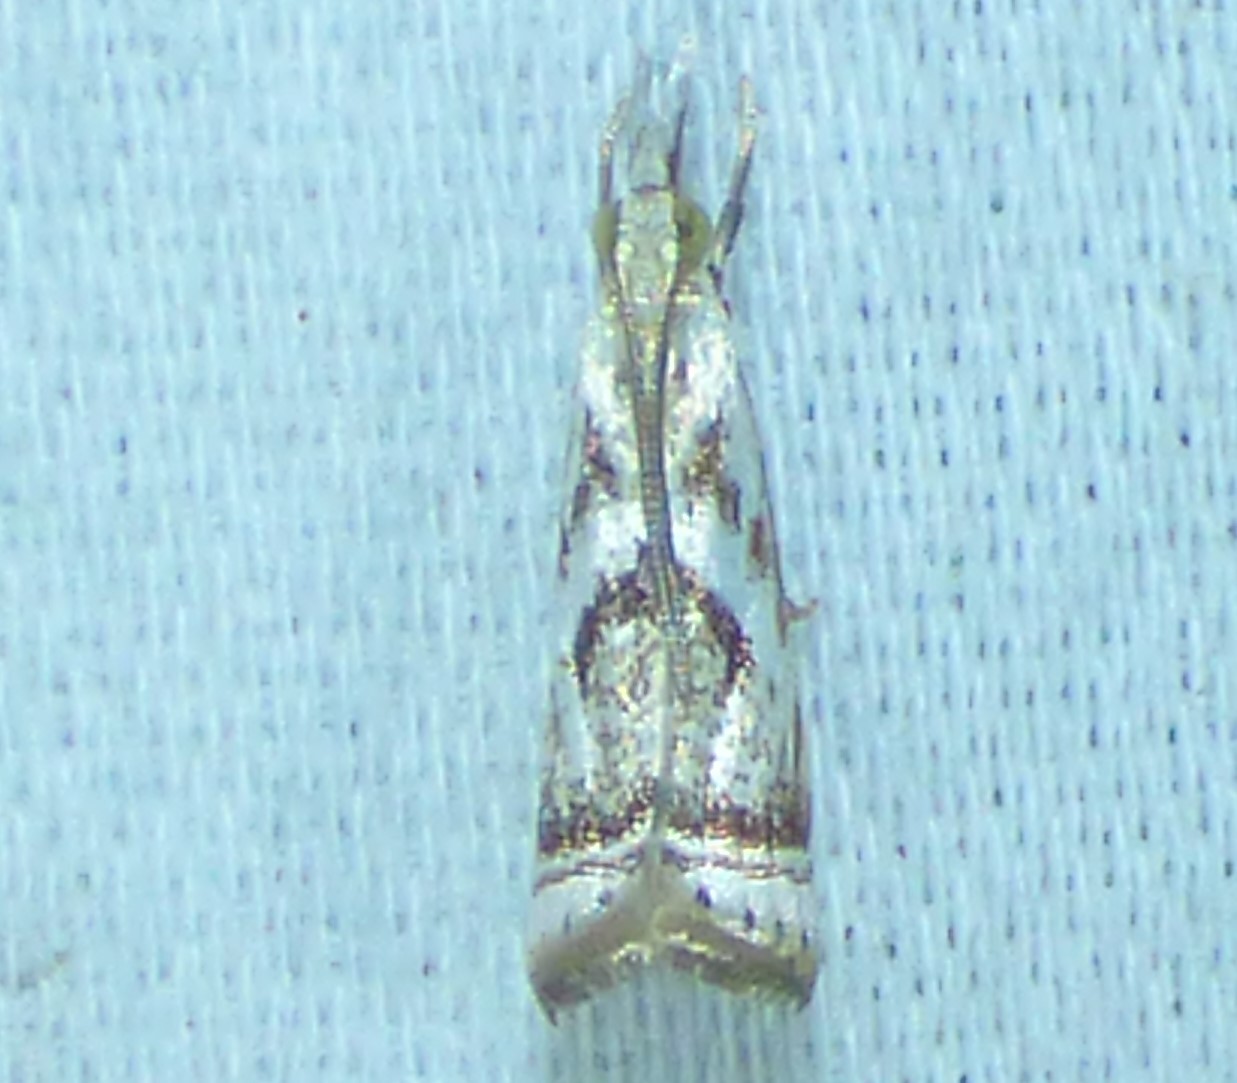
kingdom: Animalia
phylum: Arthropoda
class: Insecta
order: Lepidoptera
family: Crambidae
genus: Microcrambus
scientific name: Microcrambus elegans
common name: Elegant grass-veneer
